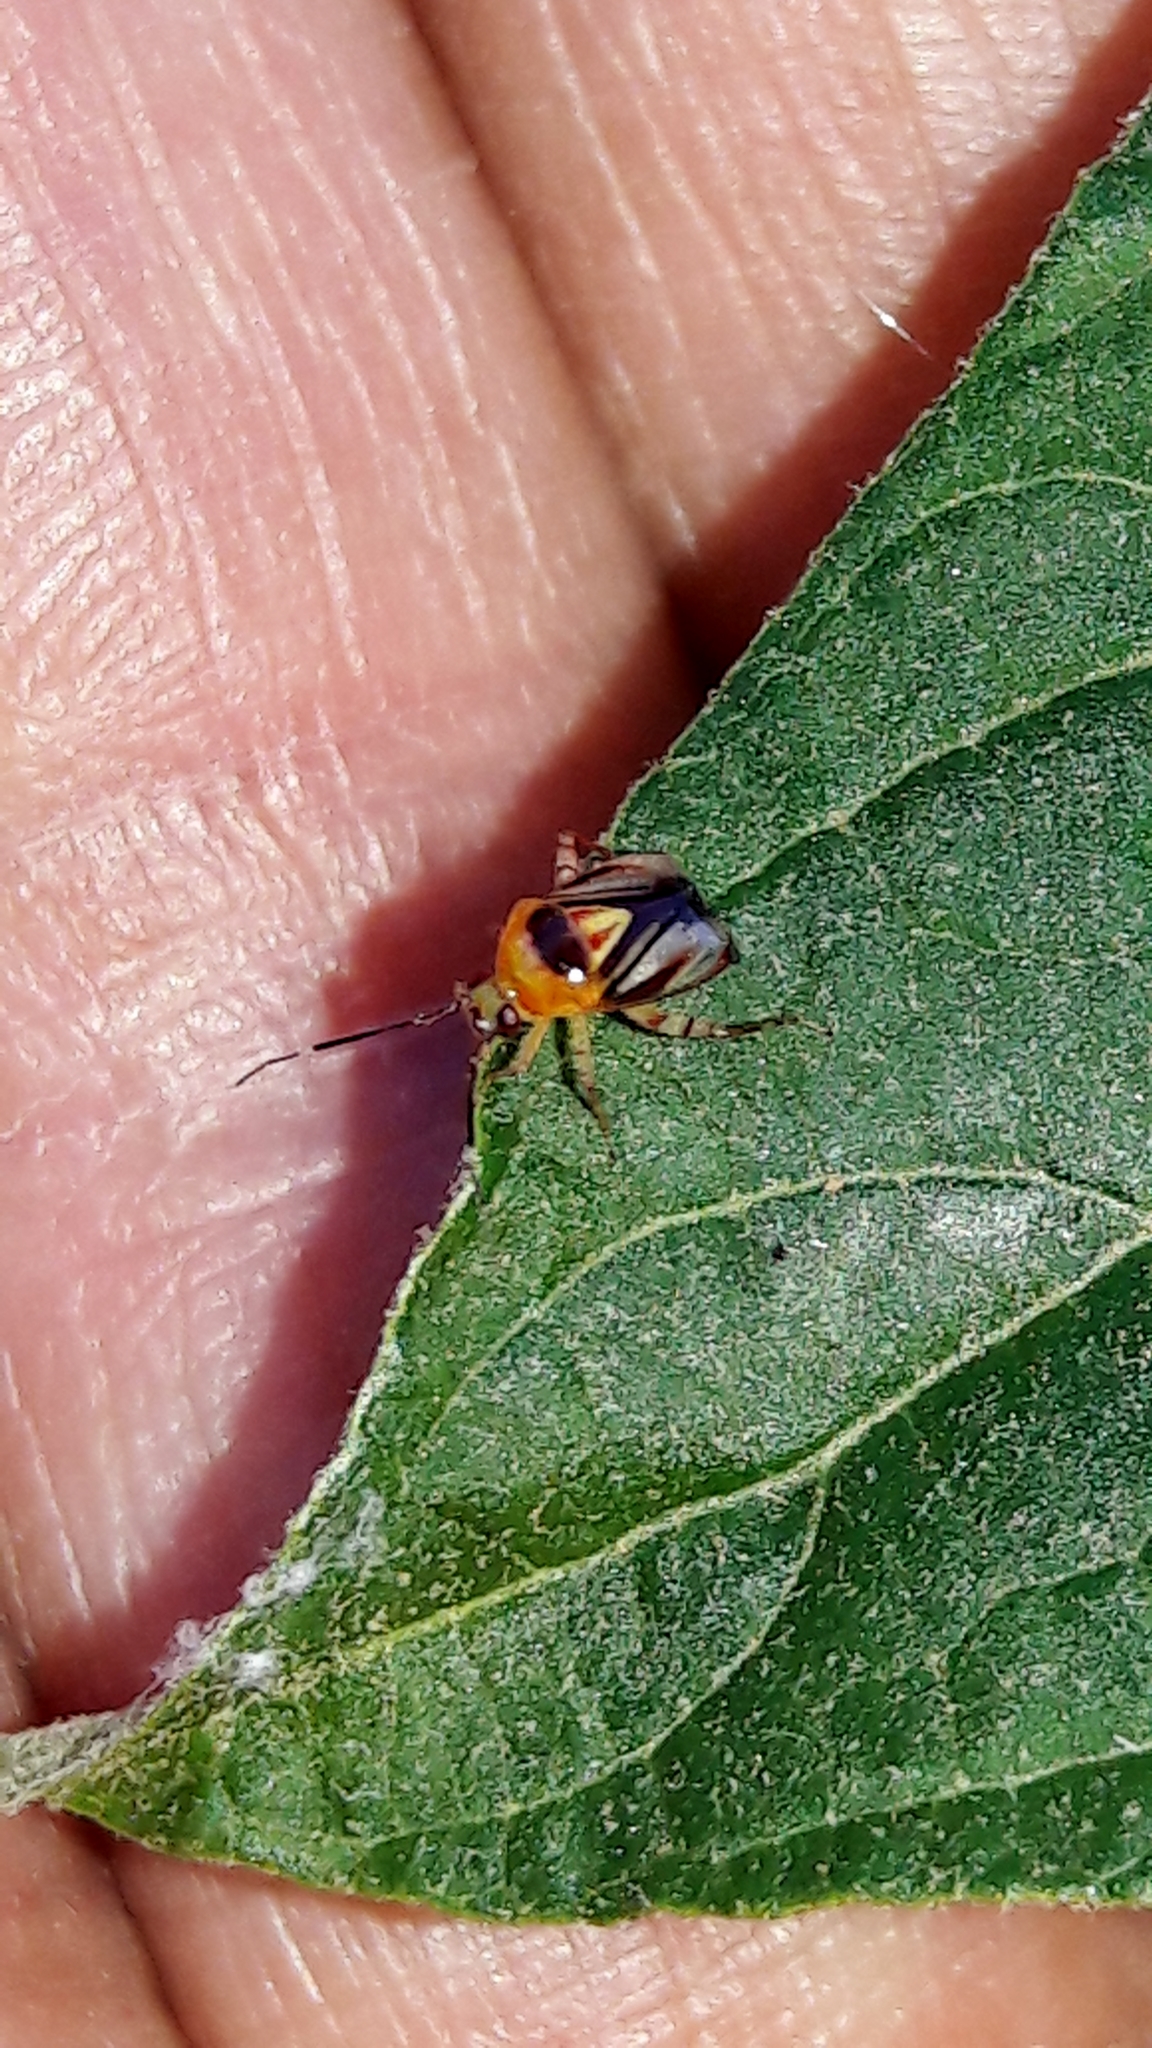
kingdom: Animalia
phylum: Arthropoda
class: Insecta
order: Hemiptera
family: Miridae
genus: Horciasoides
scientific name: Horciasoides notatus
